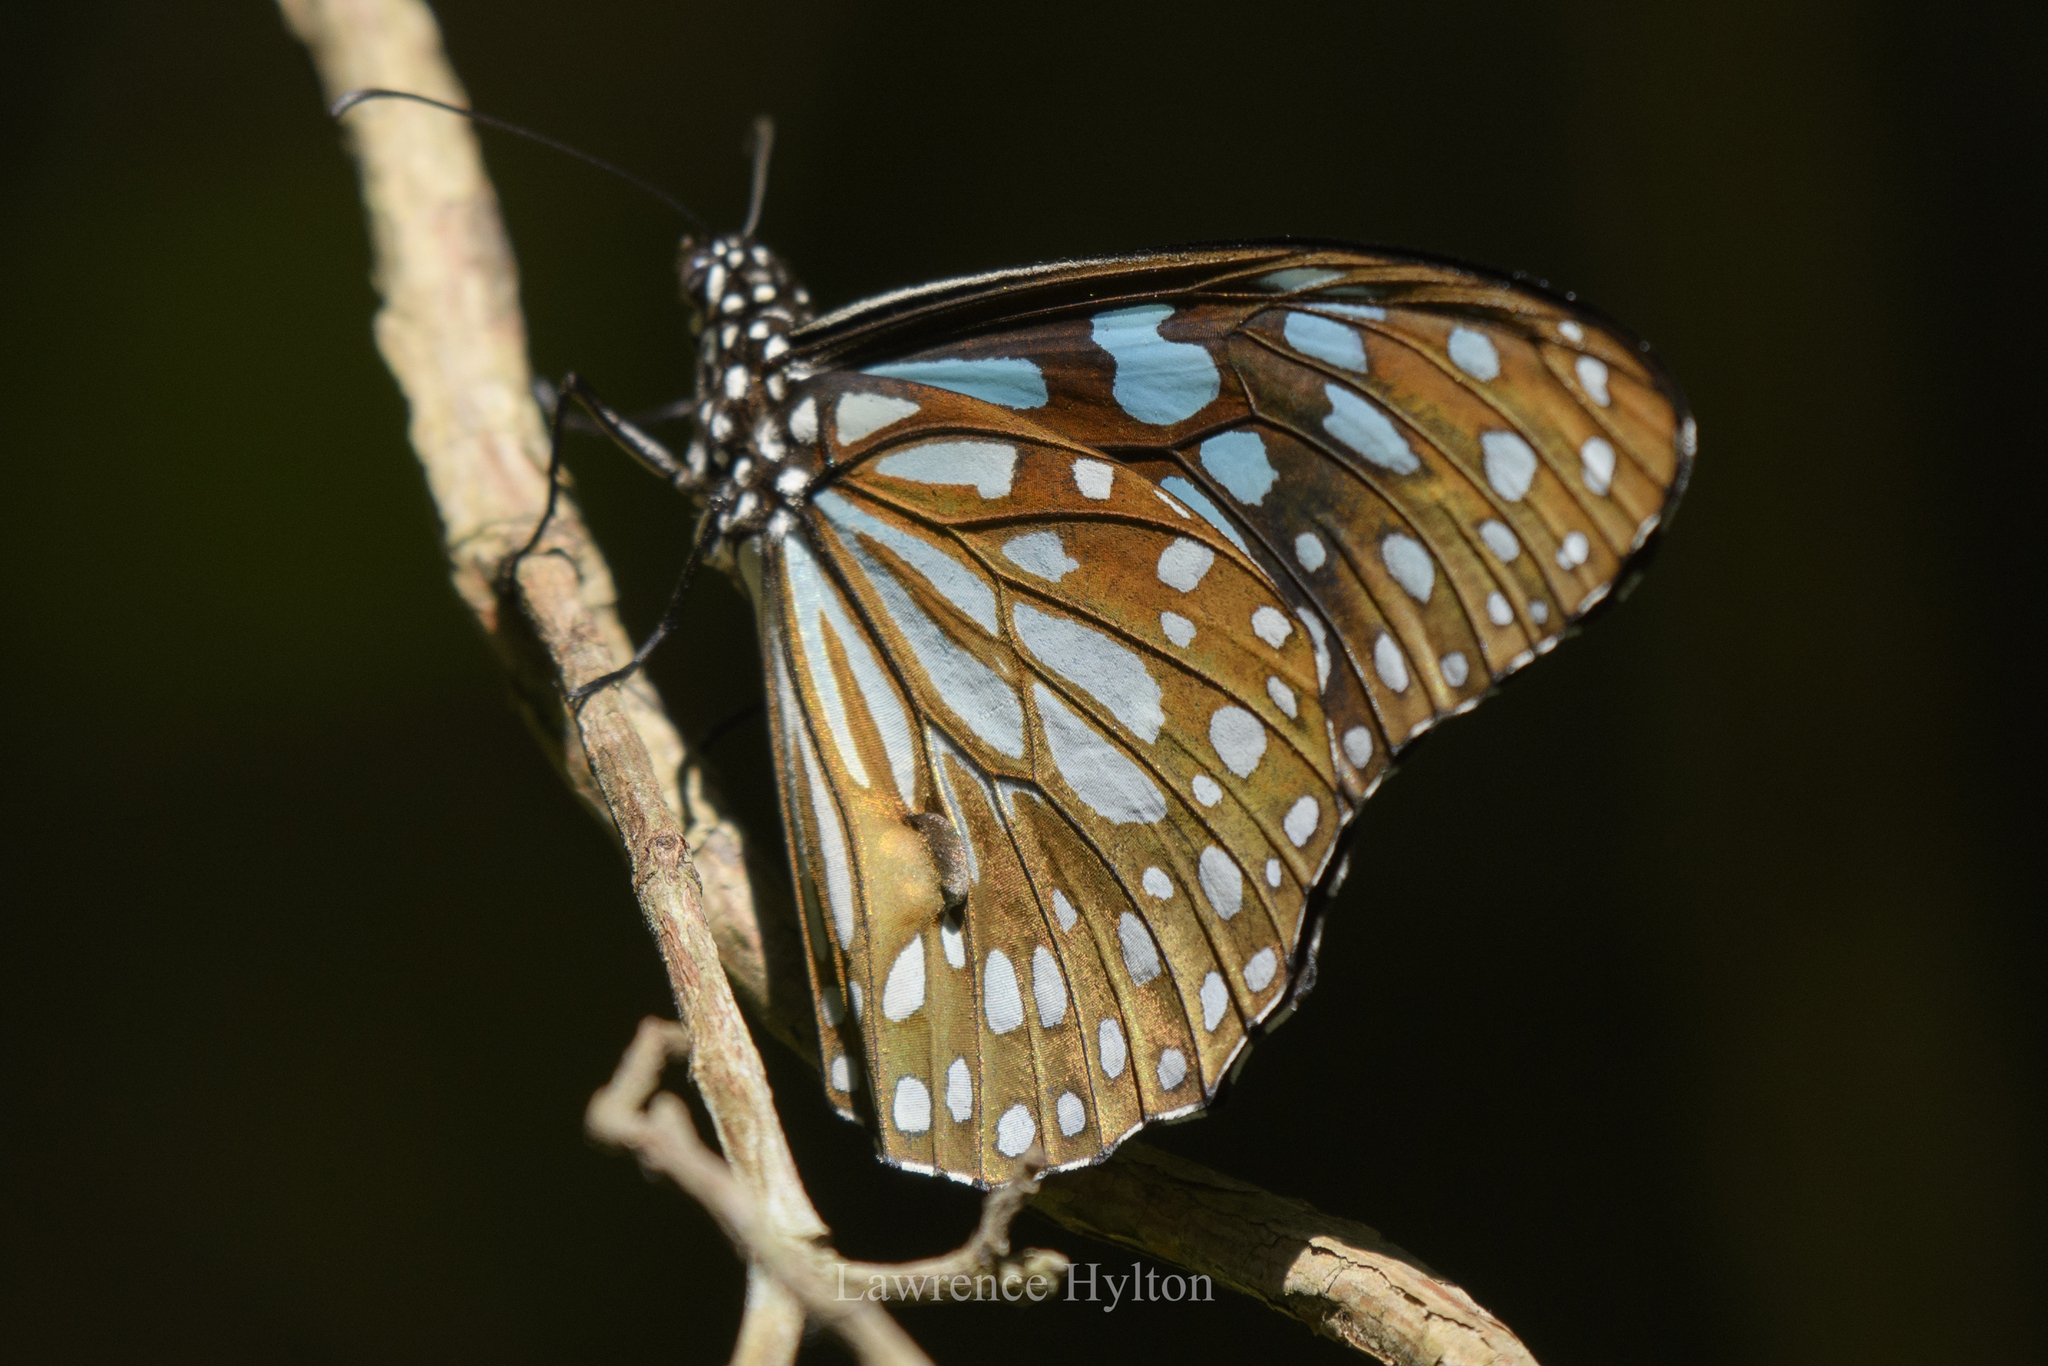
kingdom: Animalia
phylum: Arthropoda
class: Insecta
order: Lepidoptera
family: Nymphalidae
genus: Tirumala
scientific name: Tirumala limniace
